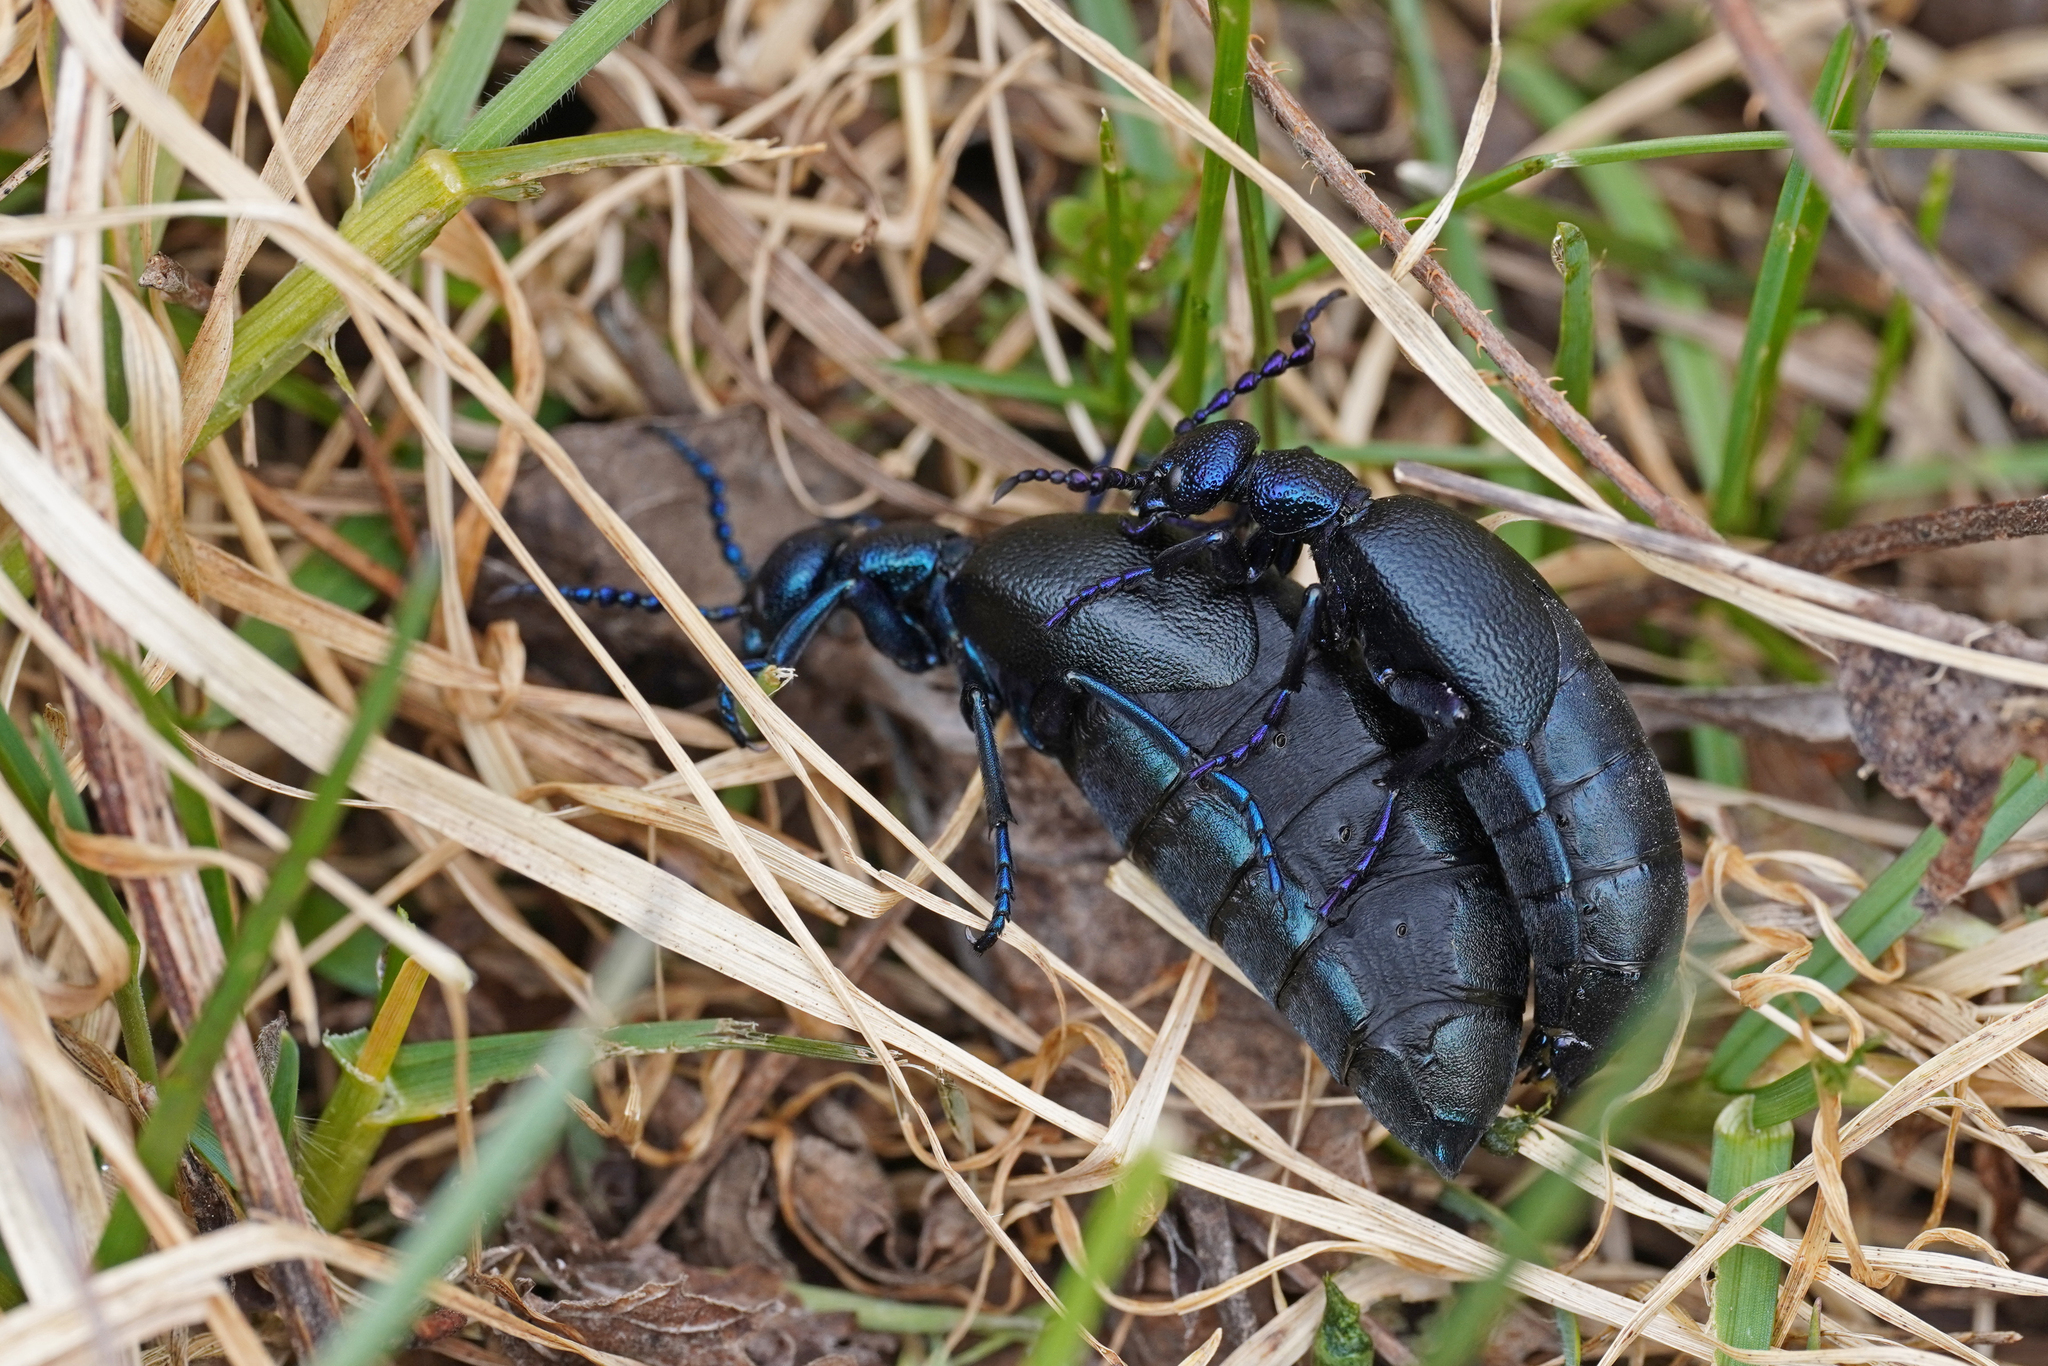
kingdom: Animalia
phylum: Arthropoda
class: Insecta
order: Coleoptera
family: Meloidae
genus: Meloe
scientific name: Meloe proscarabaeus
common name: Black oil-beetle
